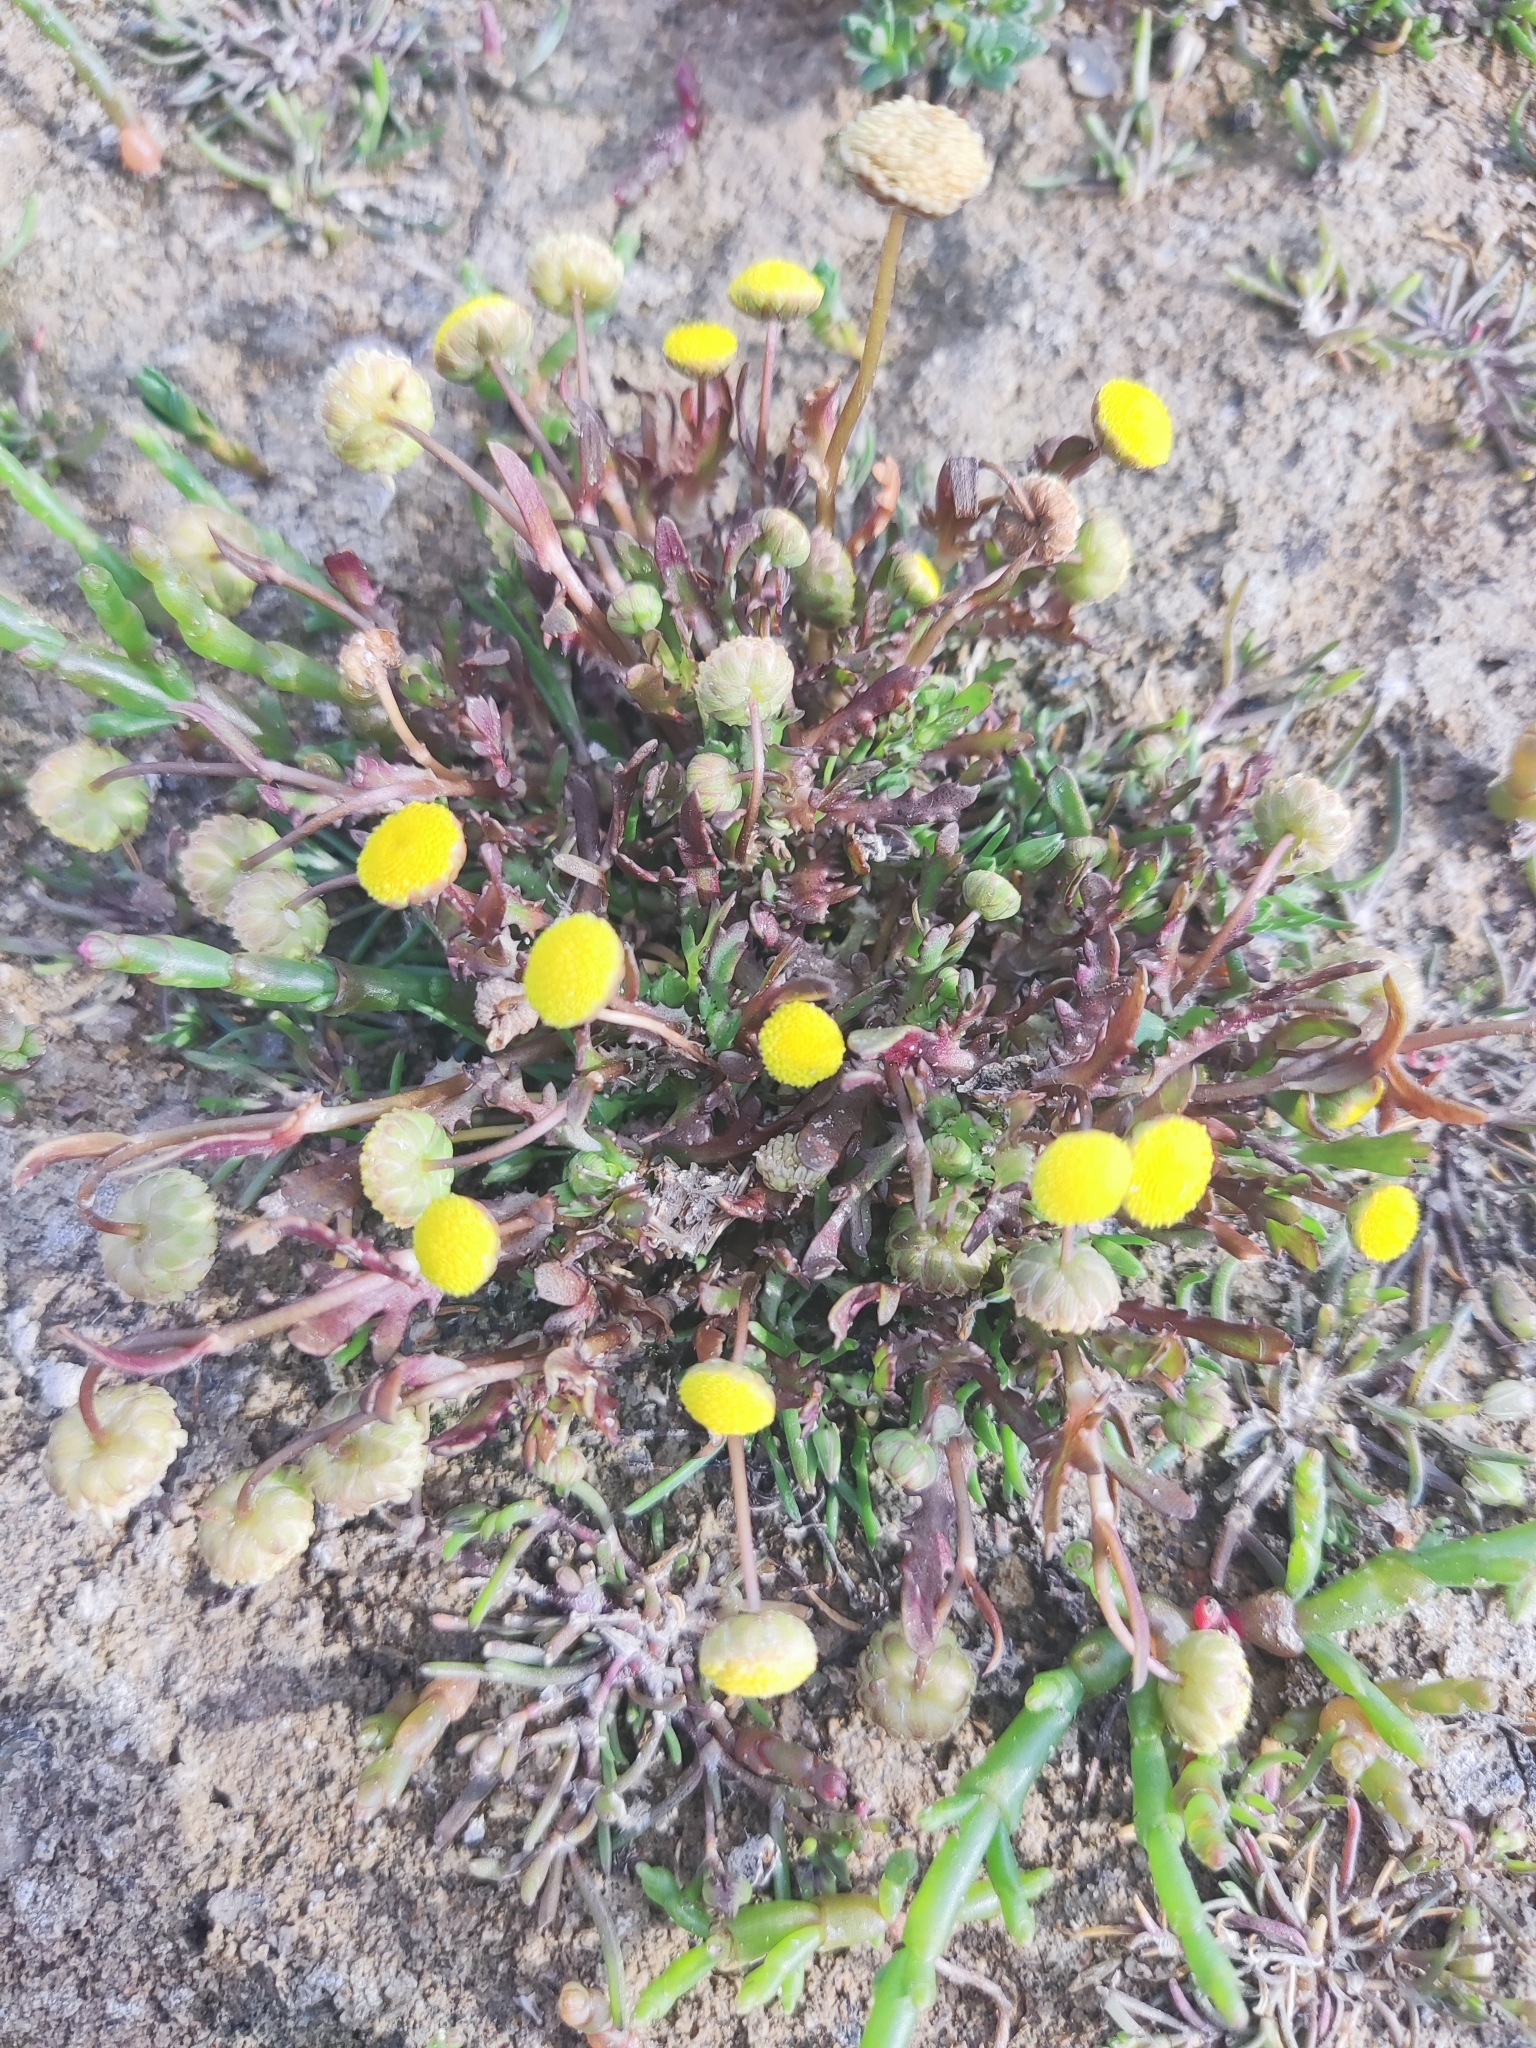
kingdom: Plantae
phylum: Tracheophyta
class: Magnoliopsida
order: Asterales
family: Asteraceae
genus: Cotula
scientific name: Cotula coronopifolia
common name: Buttonweed
